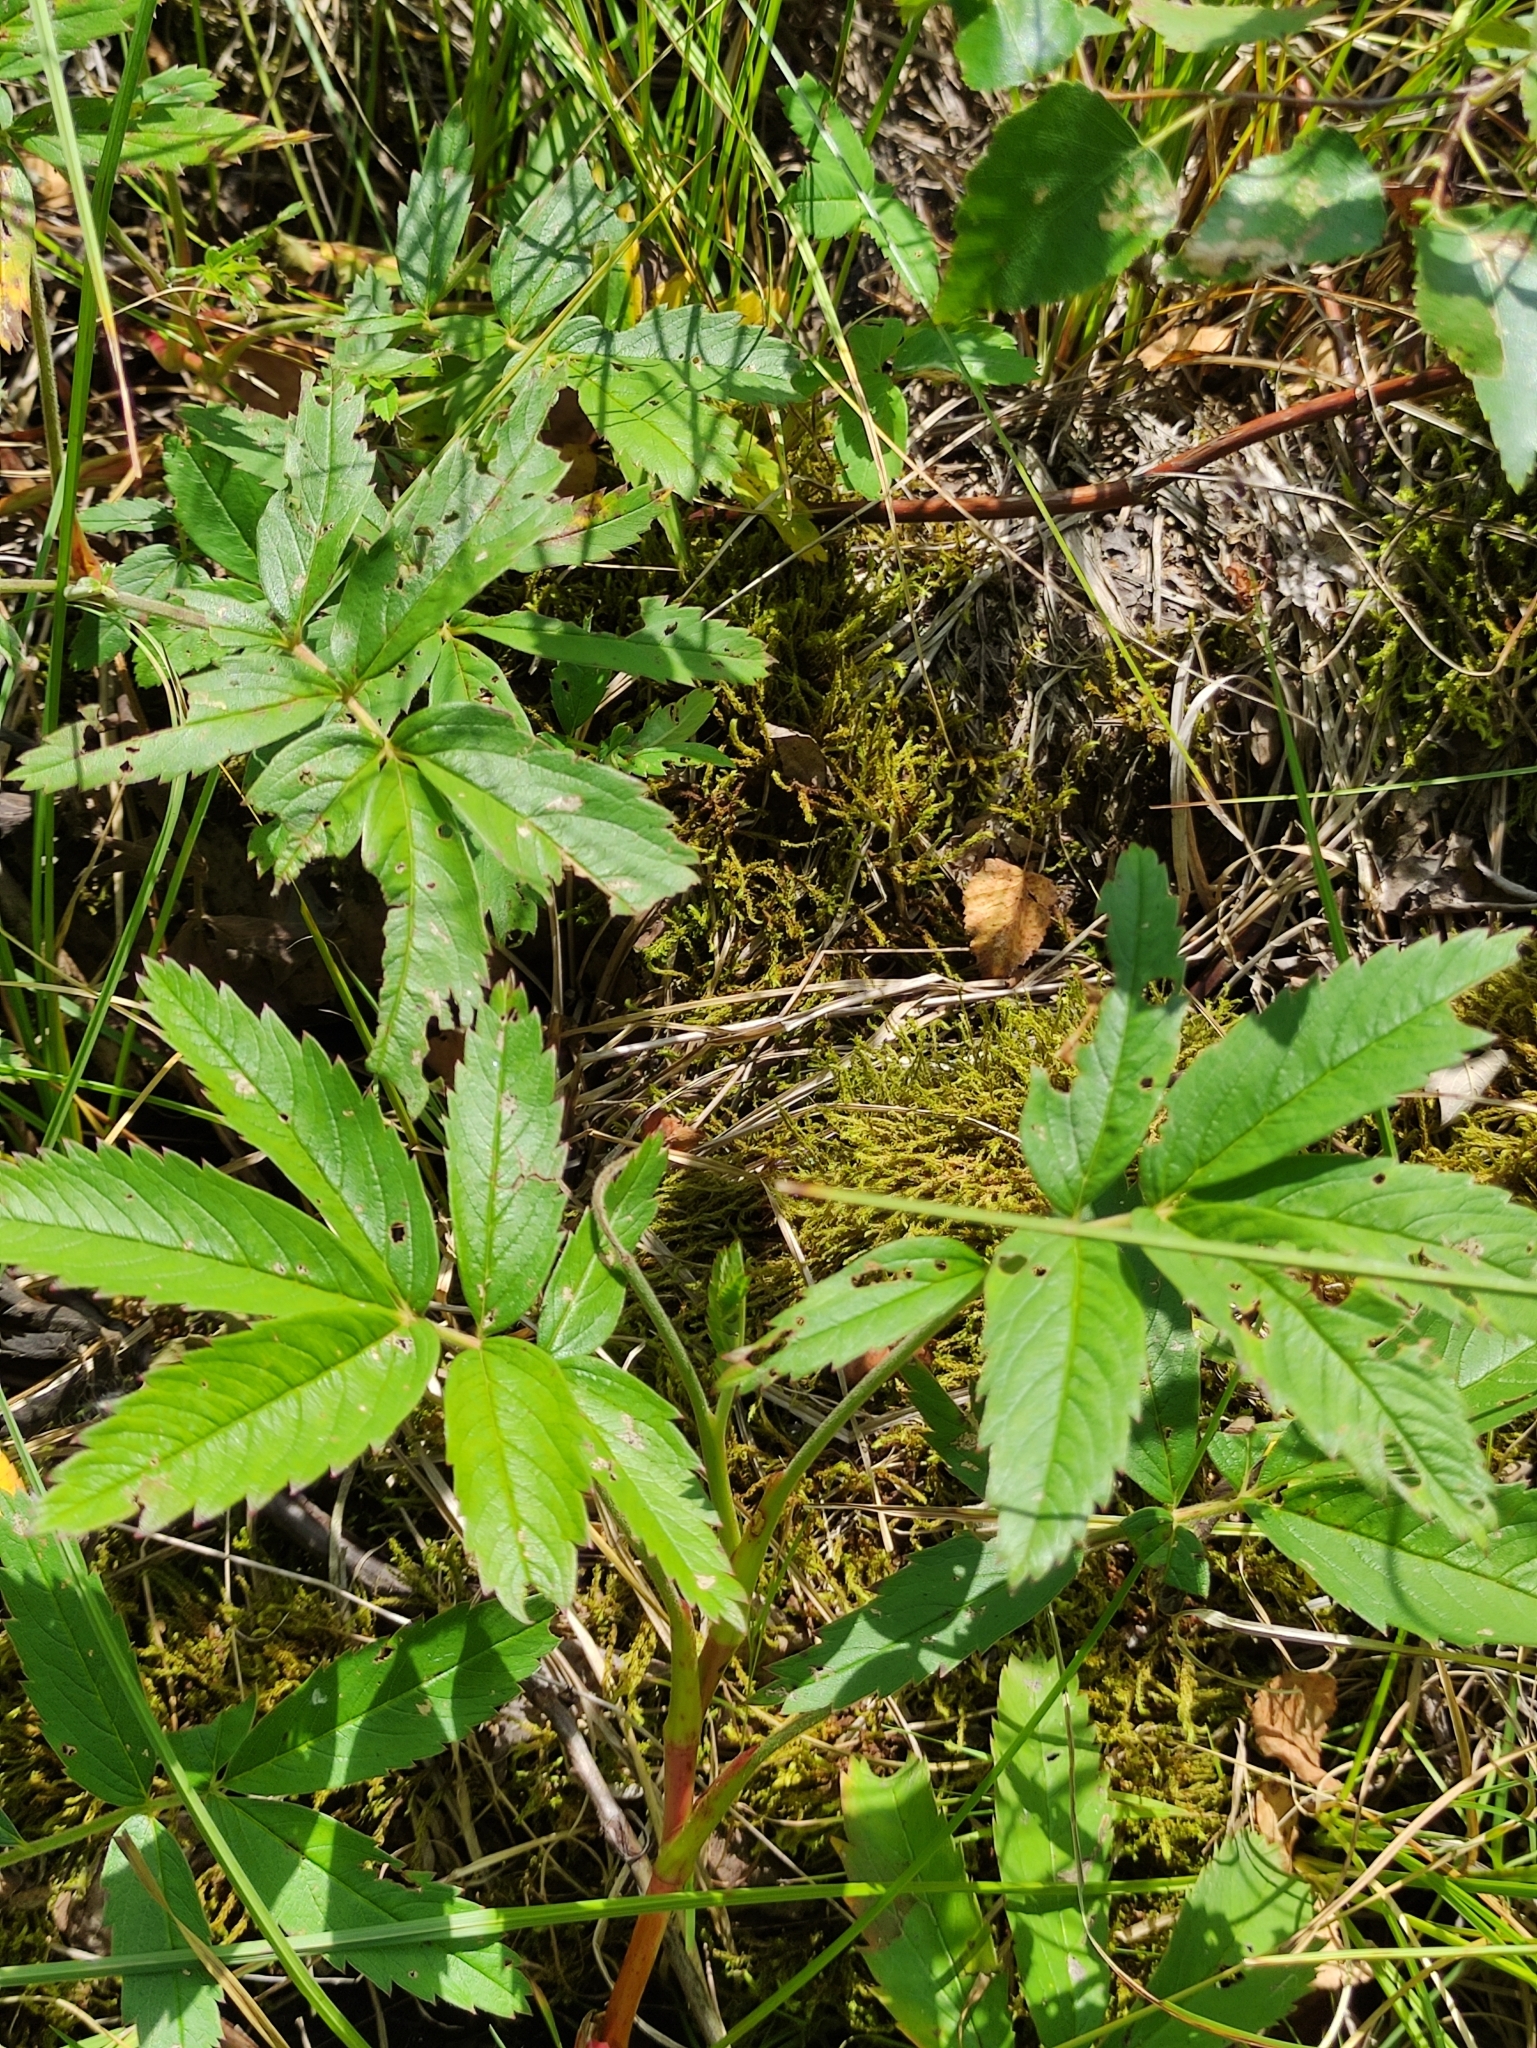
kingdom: Plantae
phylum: Tracheophyta
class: Magnoliopsida
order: Rosales
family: Rosaceae
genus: Comarum
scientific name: Comarum palustre
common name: Marsh cinquefoil
